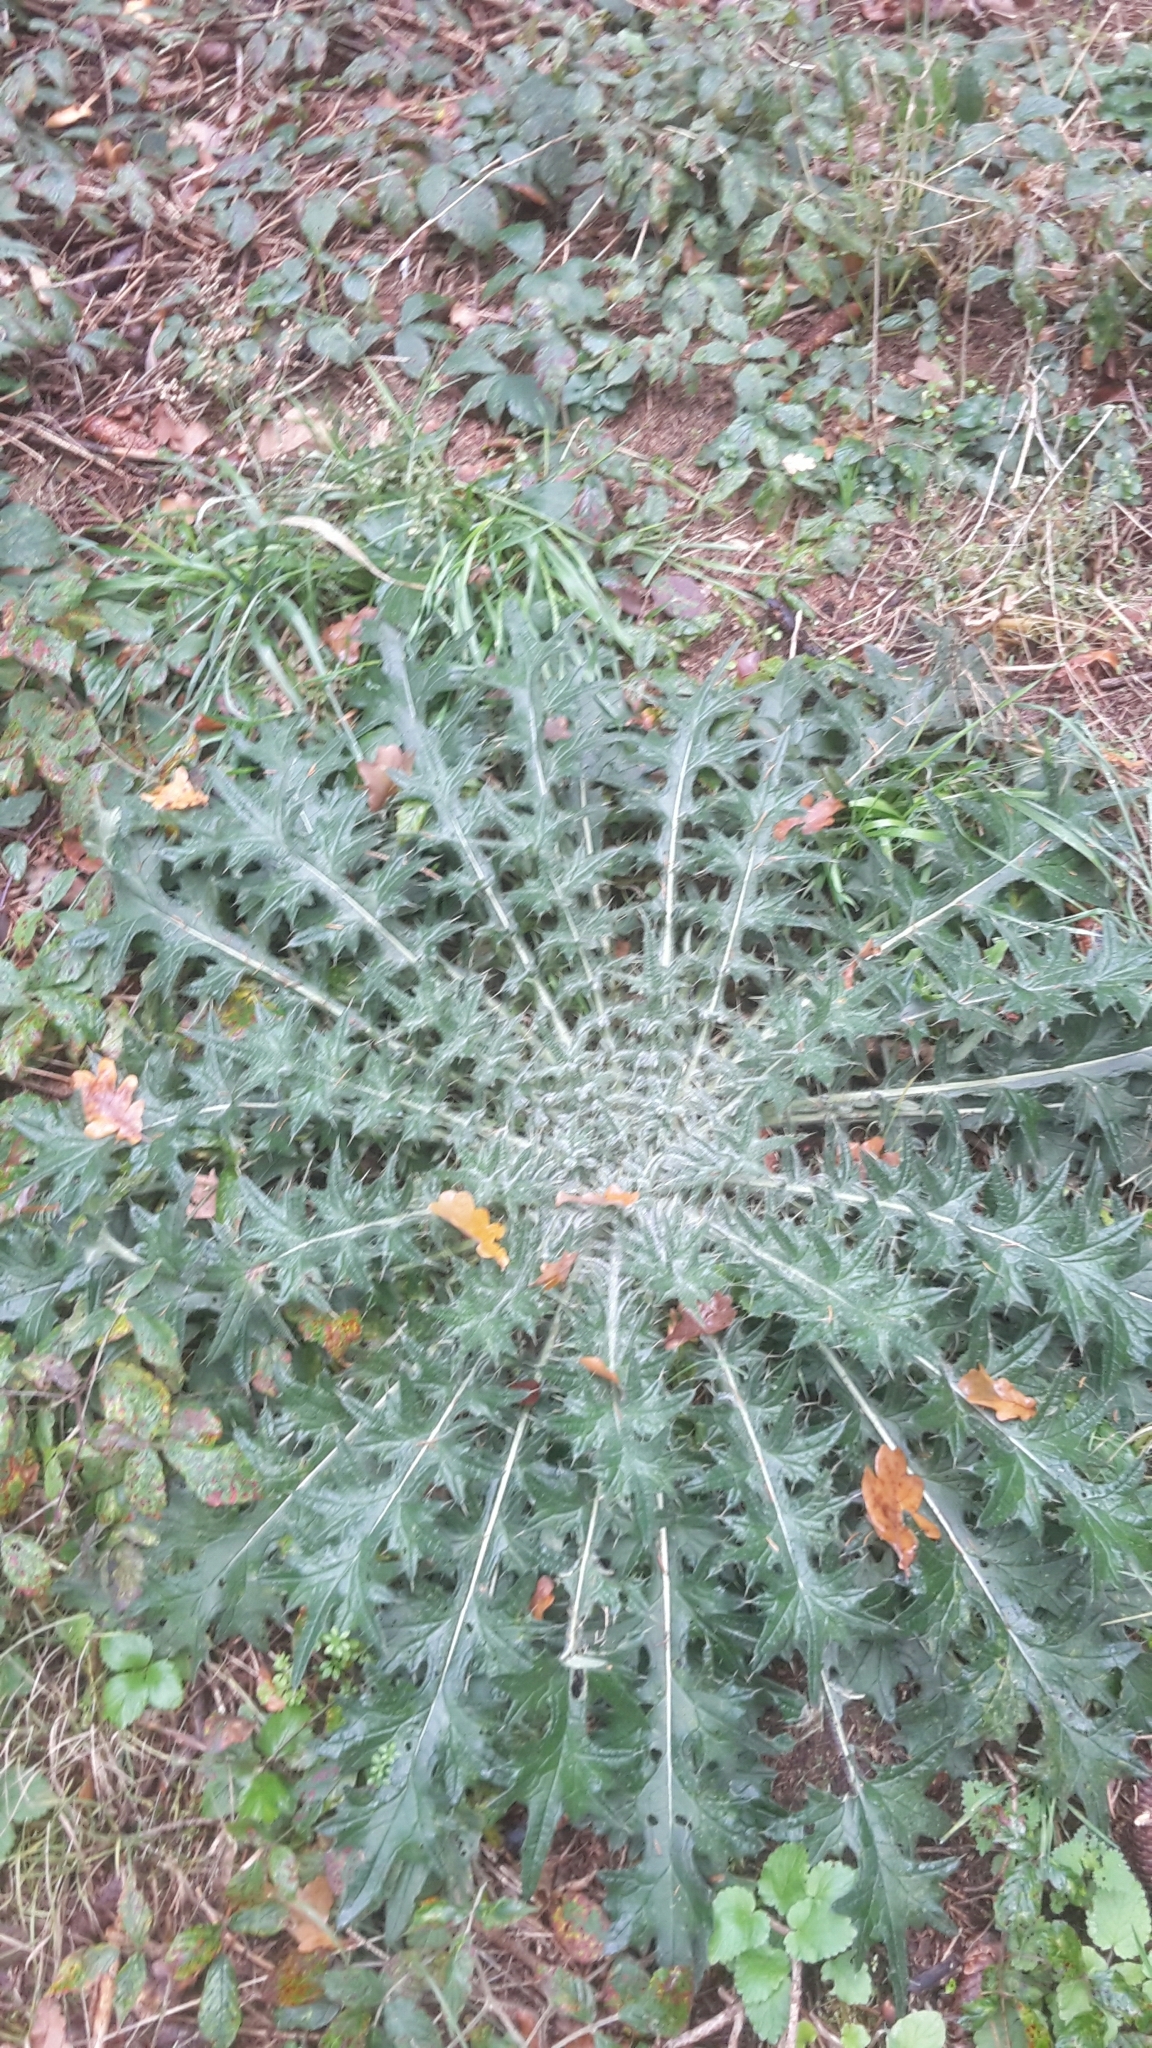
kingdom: Plantae
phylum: Tracheophyta
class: Magnoliopsida
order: Asterales
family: Asteraceae
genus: Cirsium
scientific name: Cirsium vulgare
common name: Bull thistle
